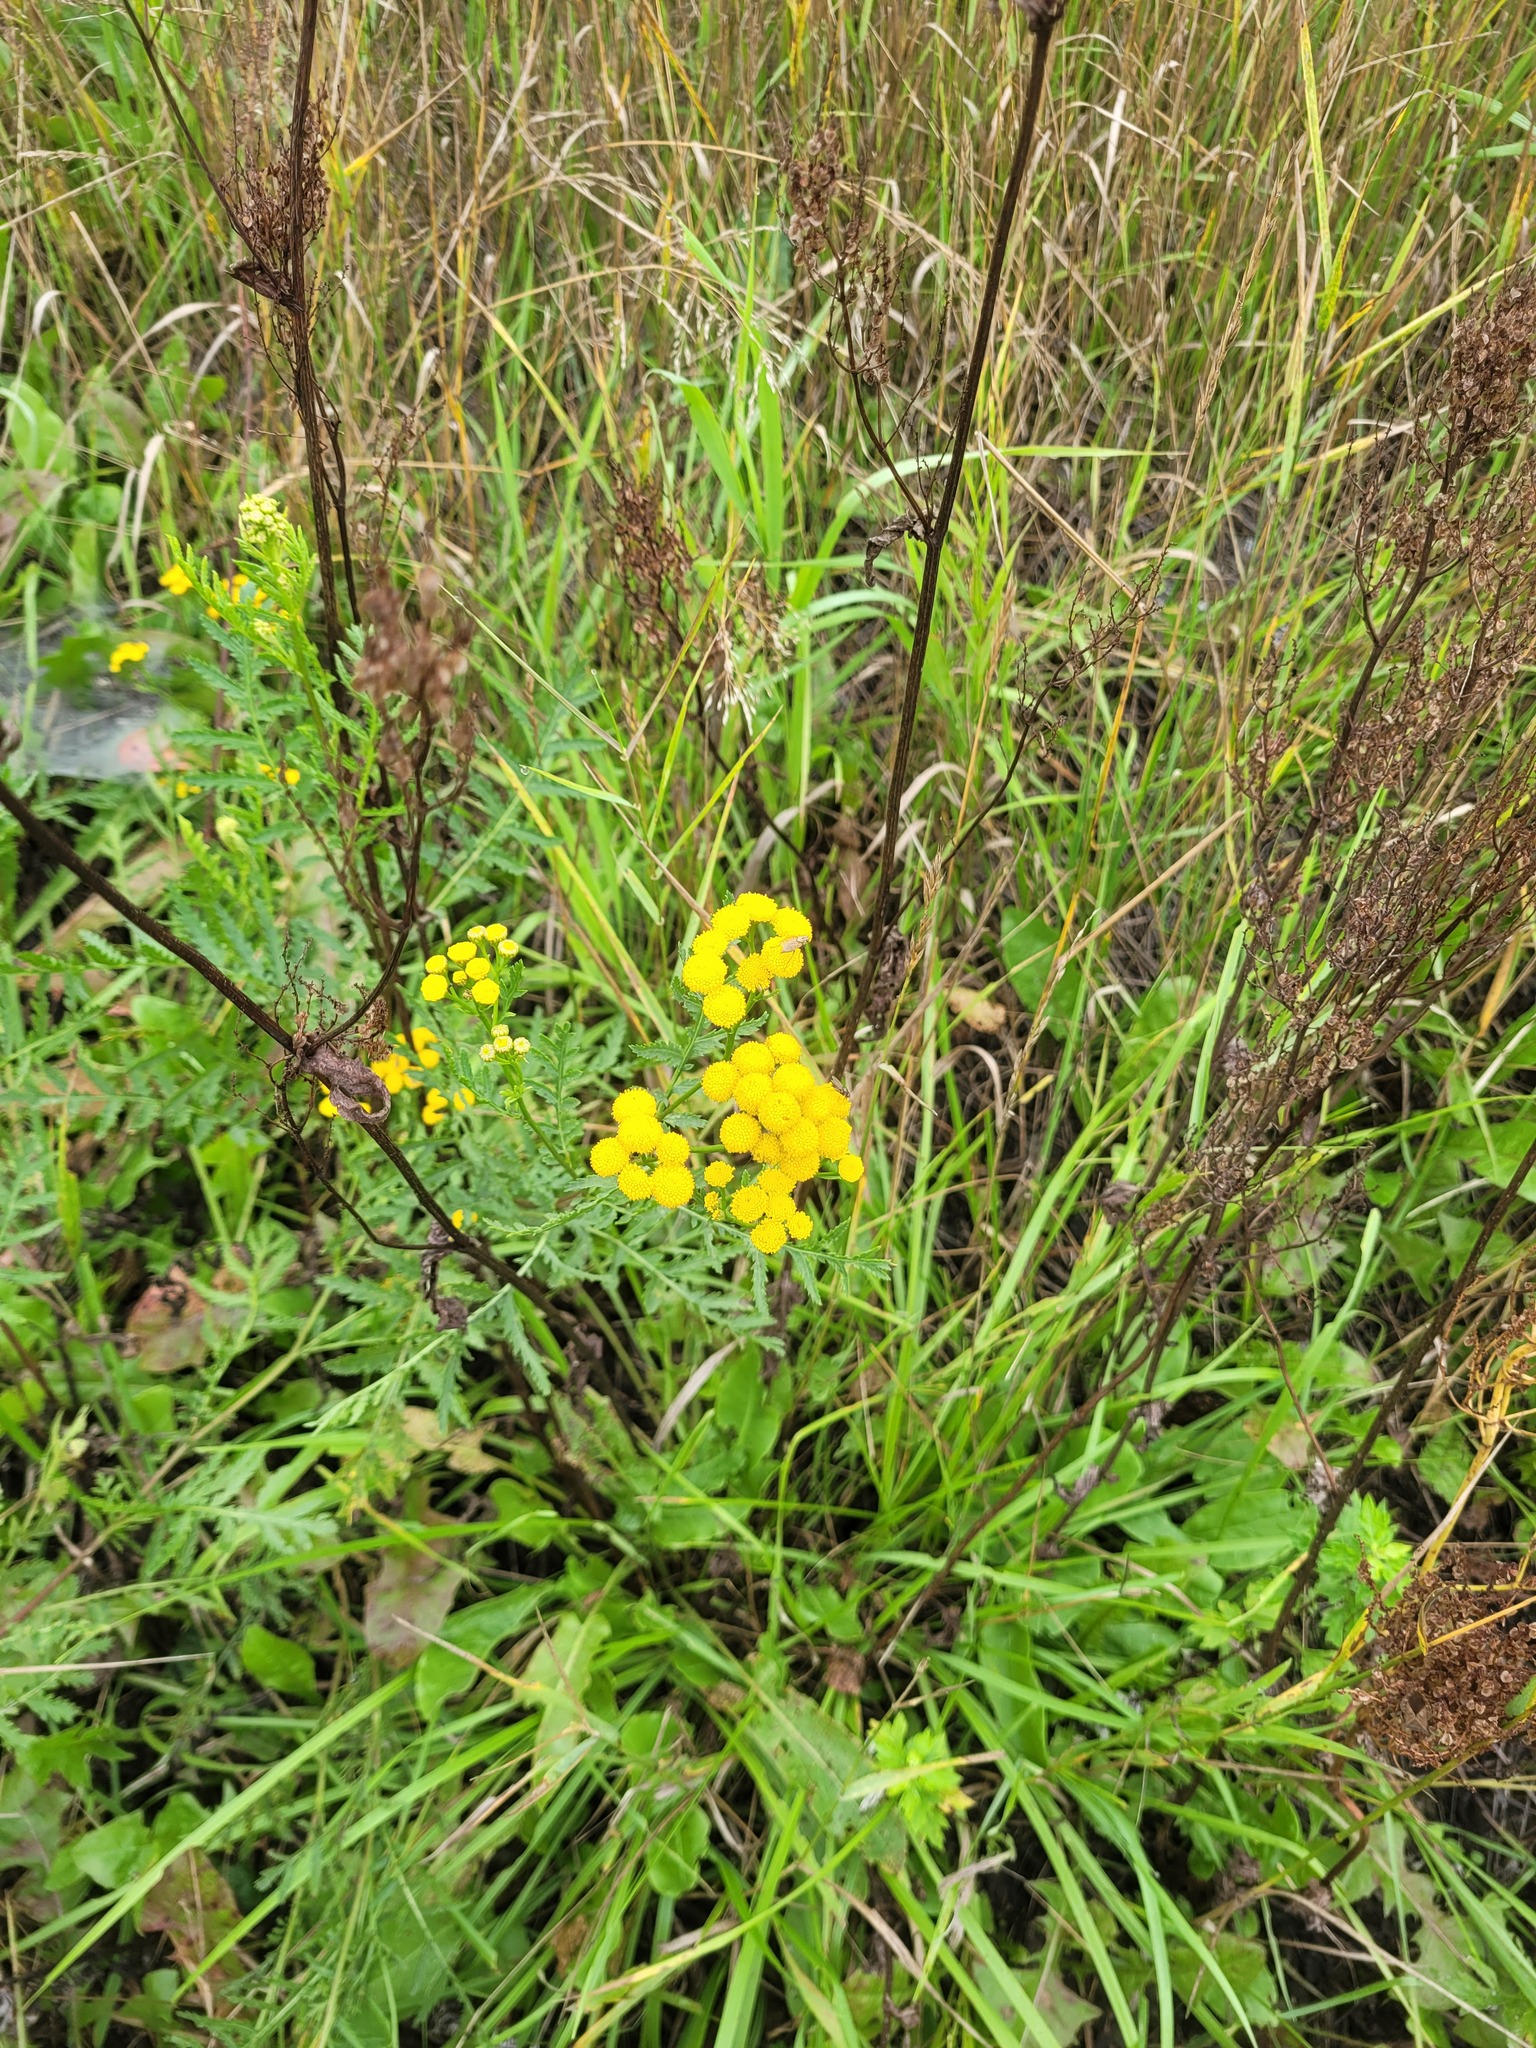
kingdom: Plantae
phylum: Tracheophyta
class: Magnoliopsida
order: Asterales
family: Asteraceae
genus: Tanacetum
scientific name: Tanacetum vulgare
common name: Common tansy
